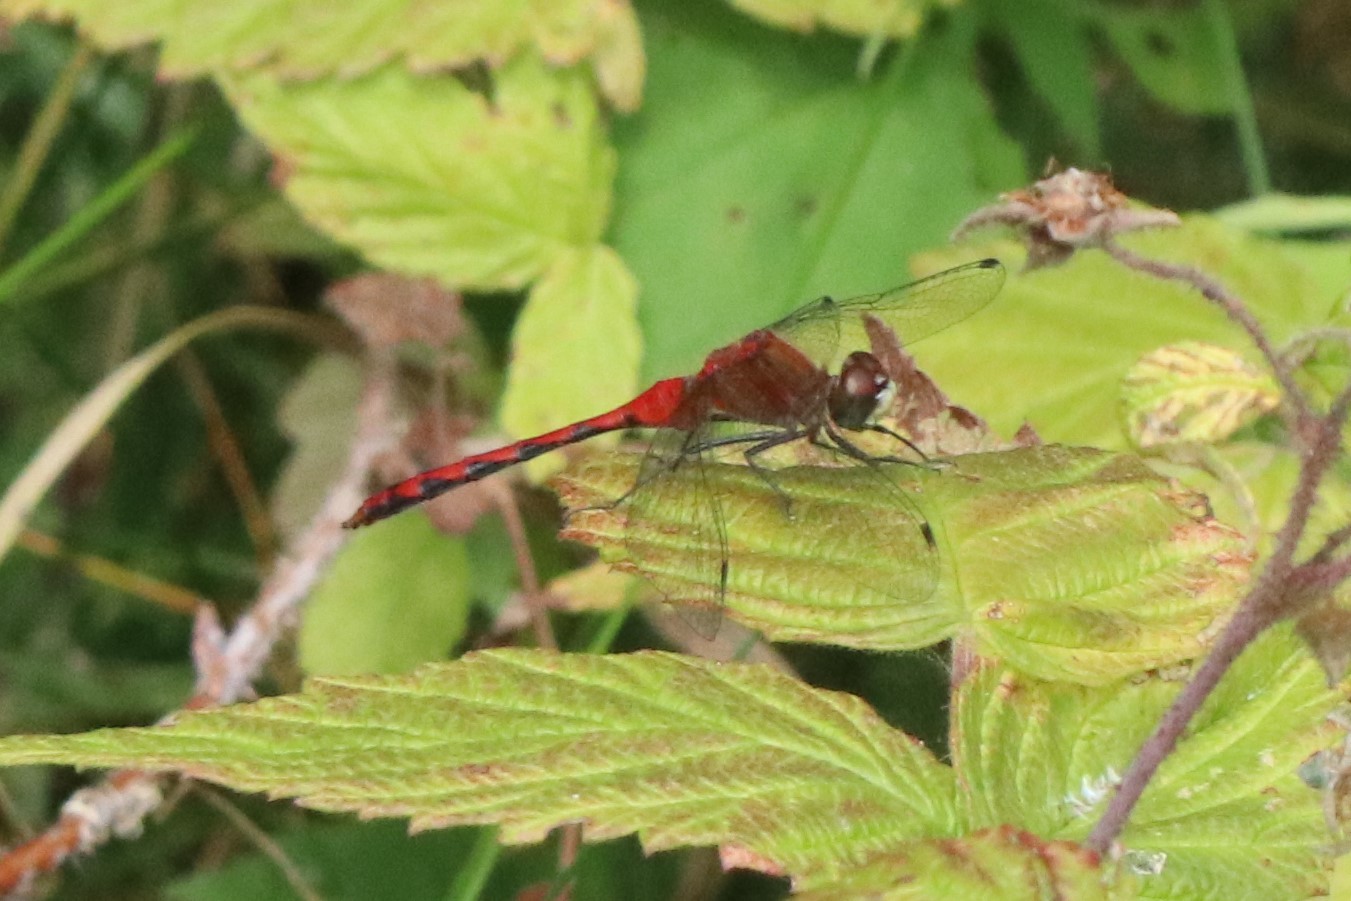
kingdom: Animalia
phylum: Arthropoda
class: Insecta
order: Odonata
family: Libellulidae
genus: Sympetrum
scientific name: Sympetrum obtrusum
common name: White-faced meadowhawk
